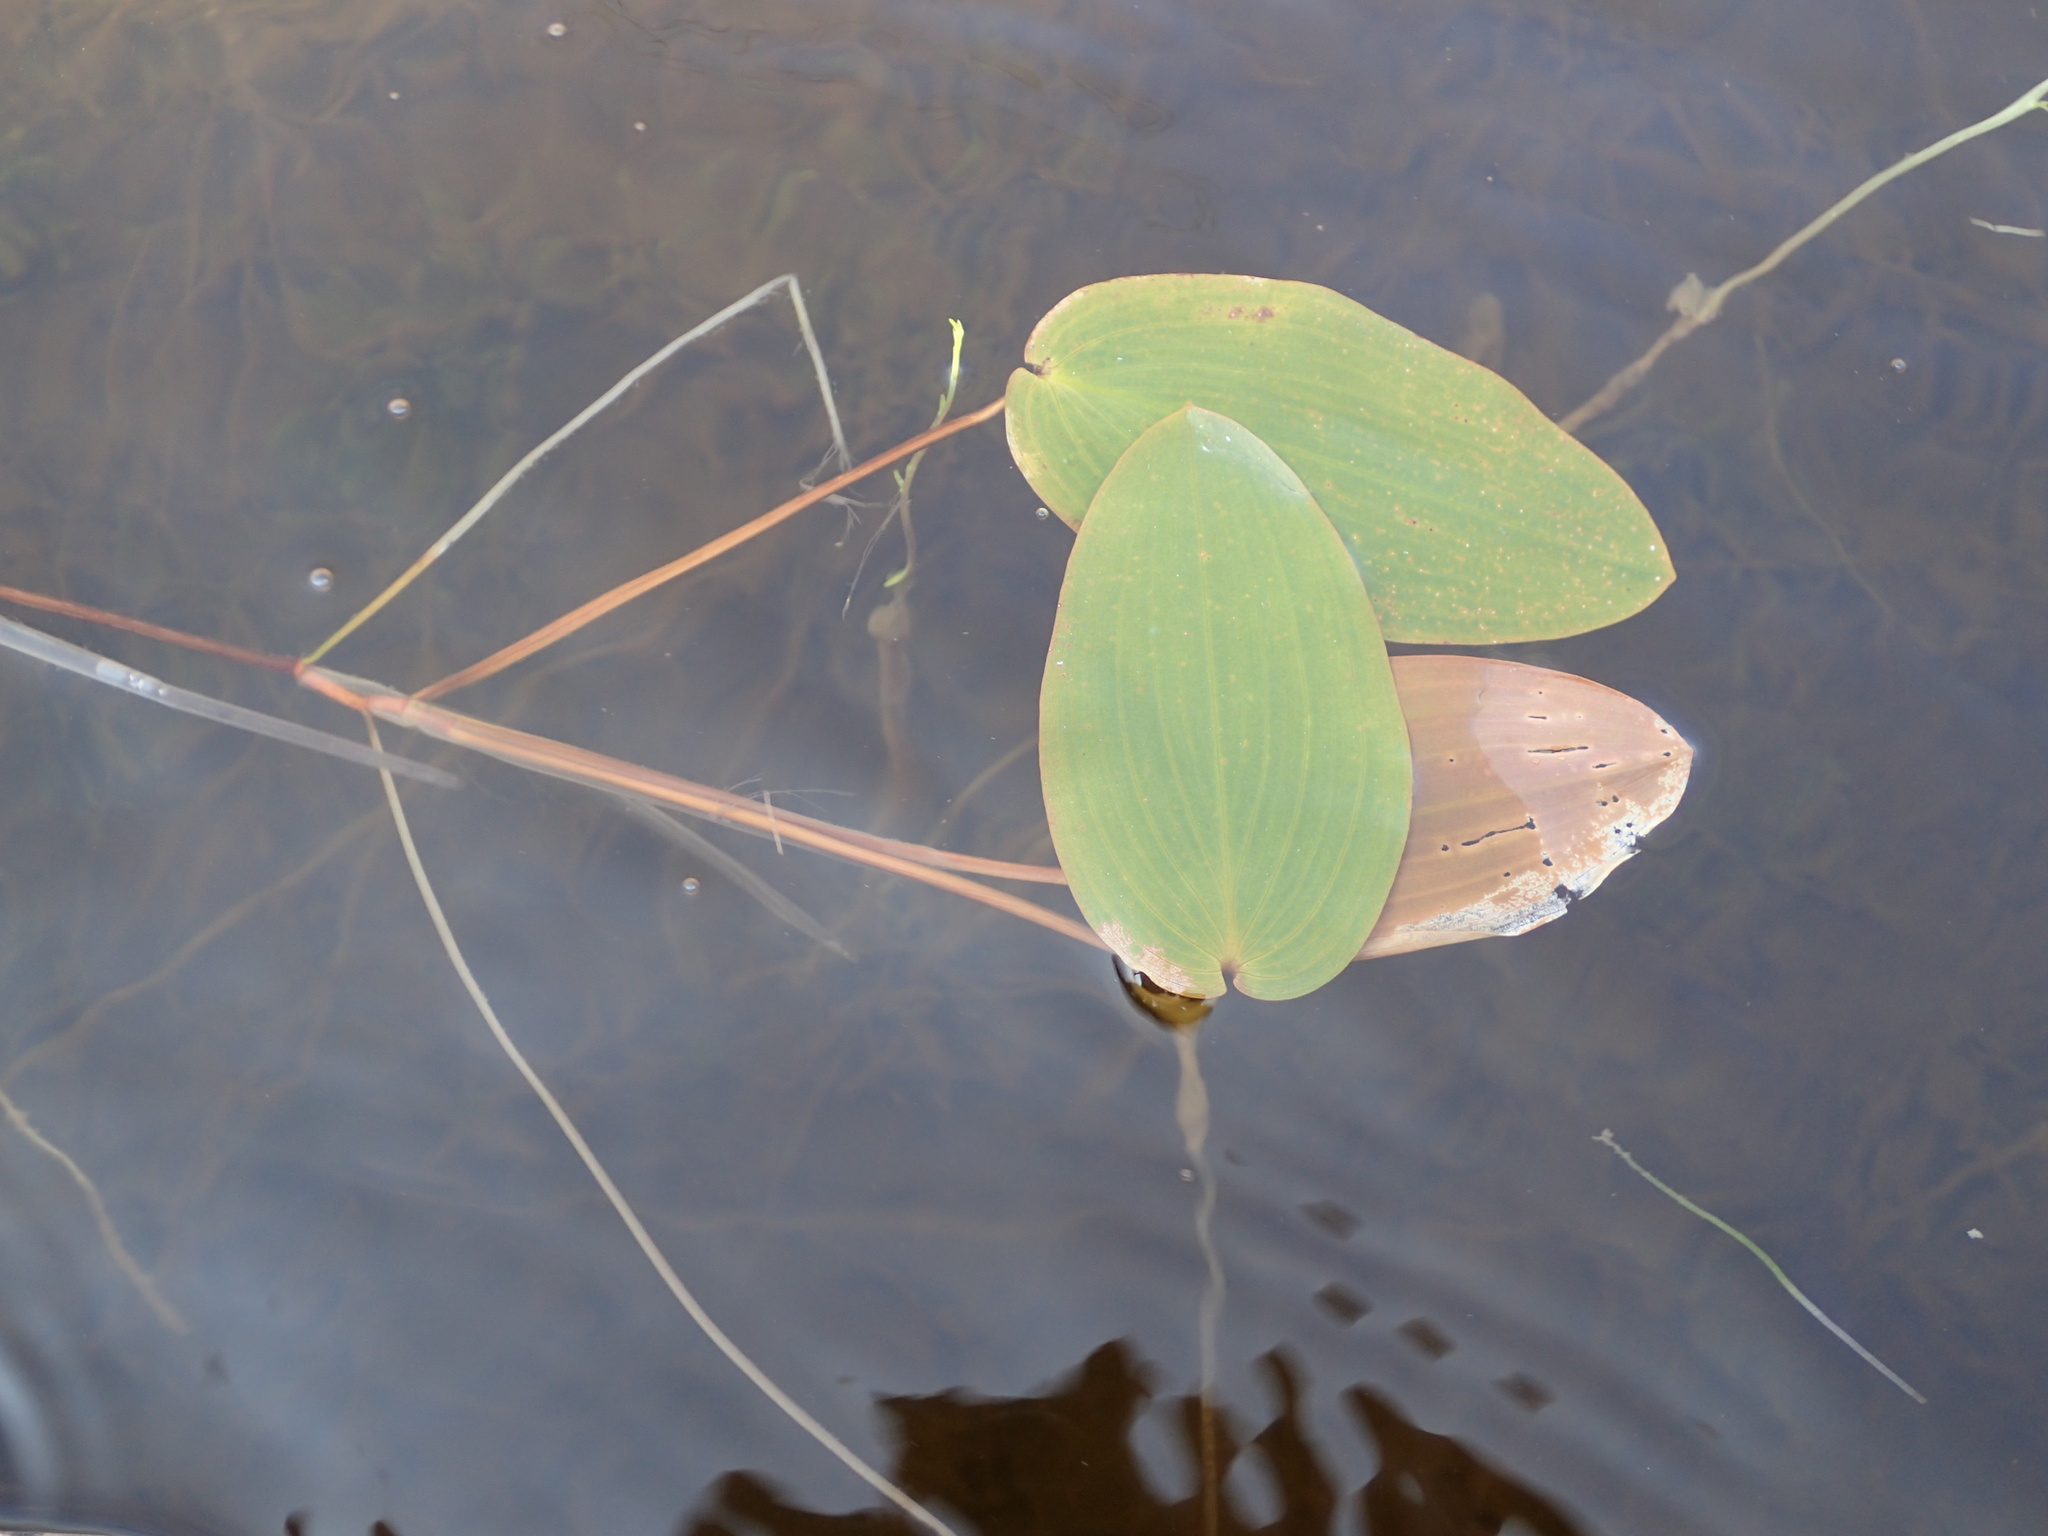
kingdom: Plantae
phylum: Tracheophyta
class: Liliopsida
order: Alismatales
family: Potamogetonaceae
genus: Potamogeton
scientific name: Potamogeton natans
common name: Broad-leaved pondweed
